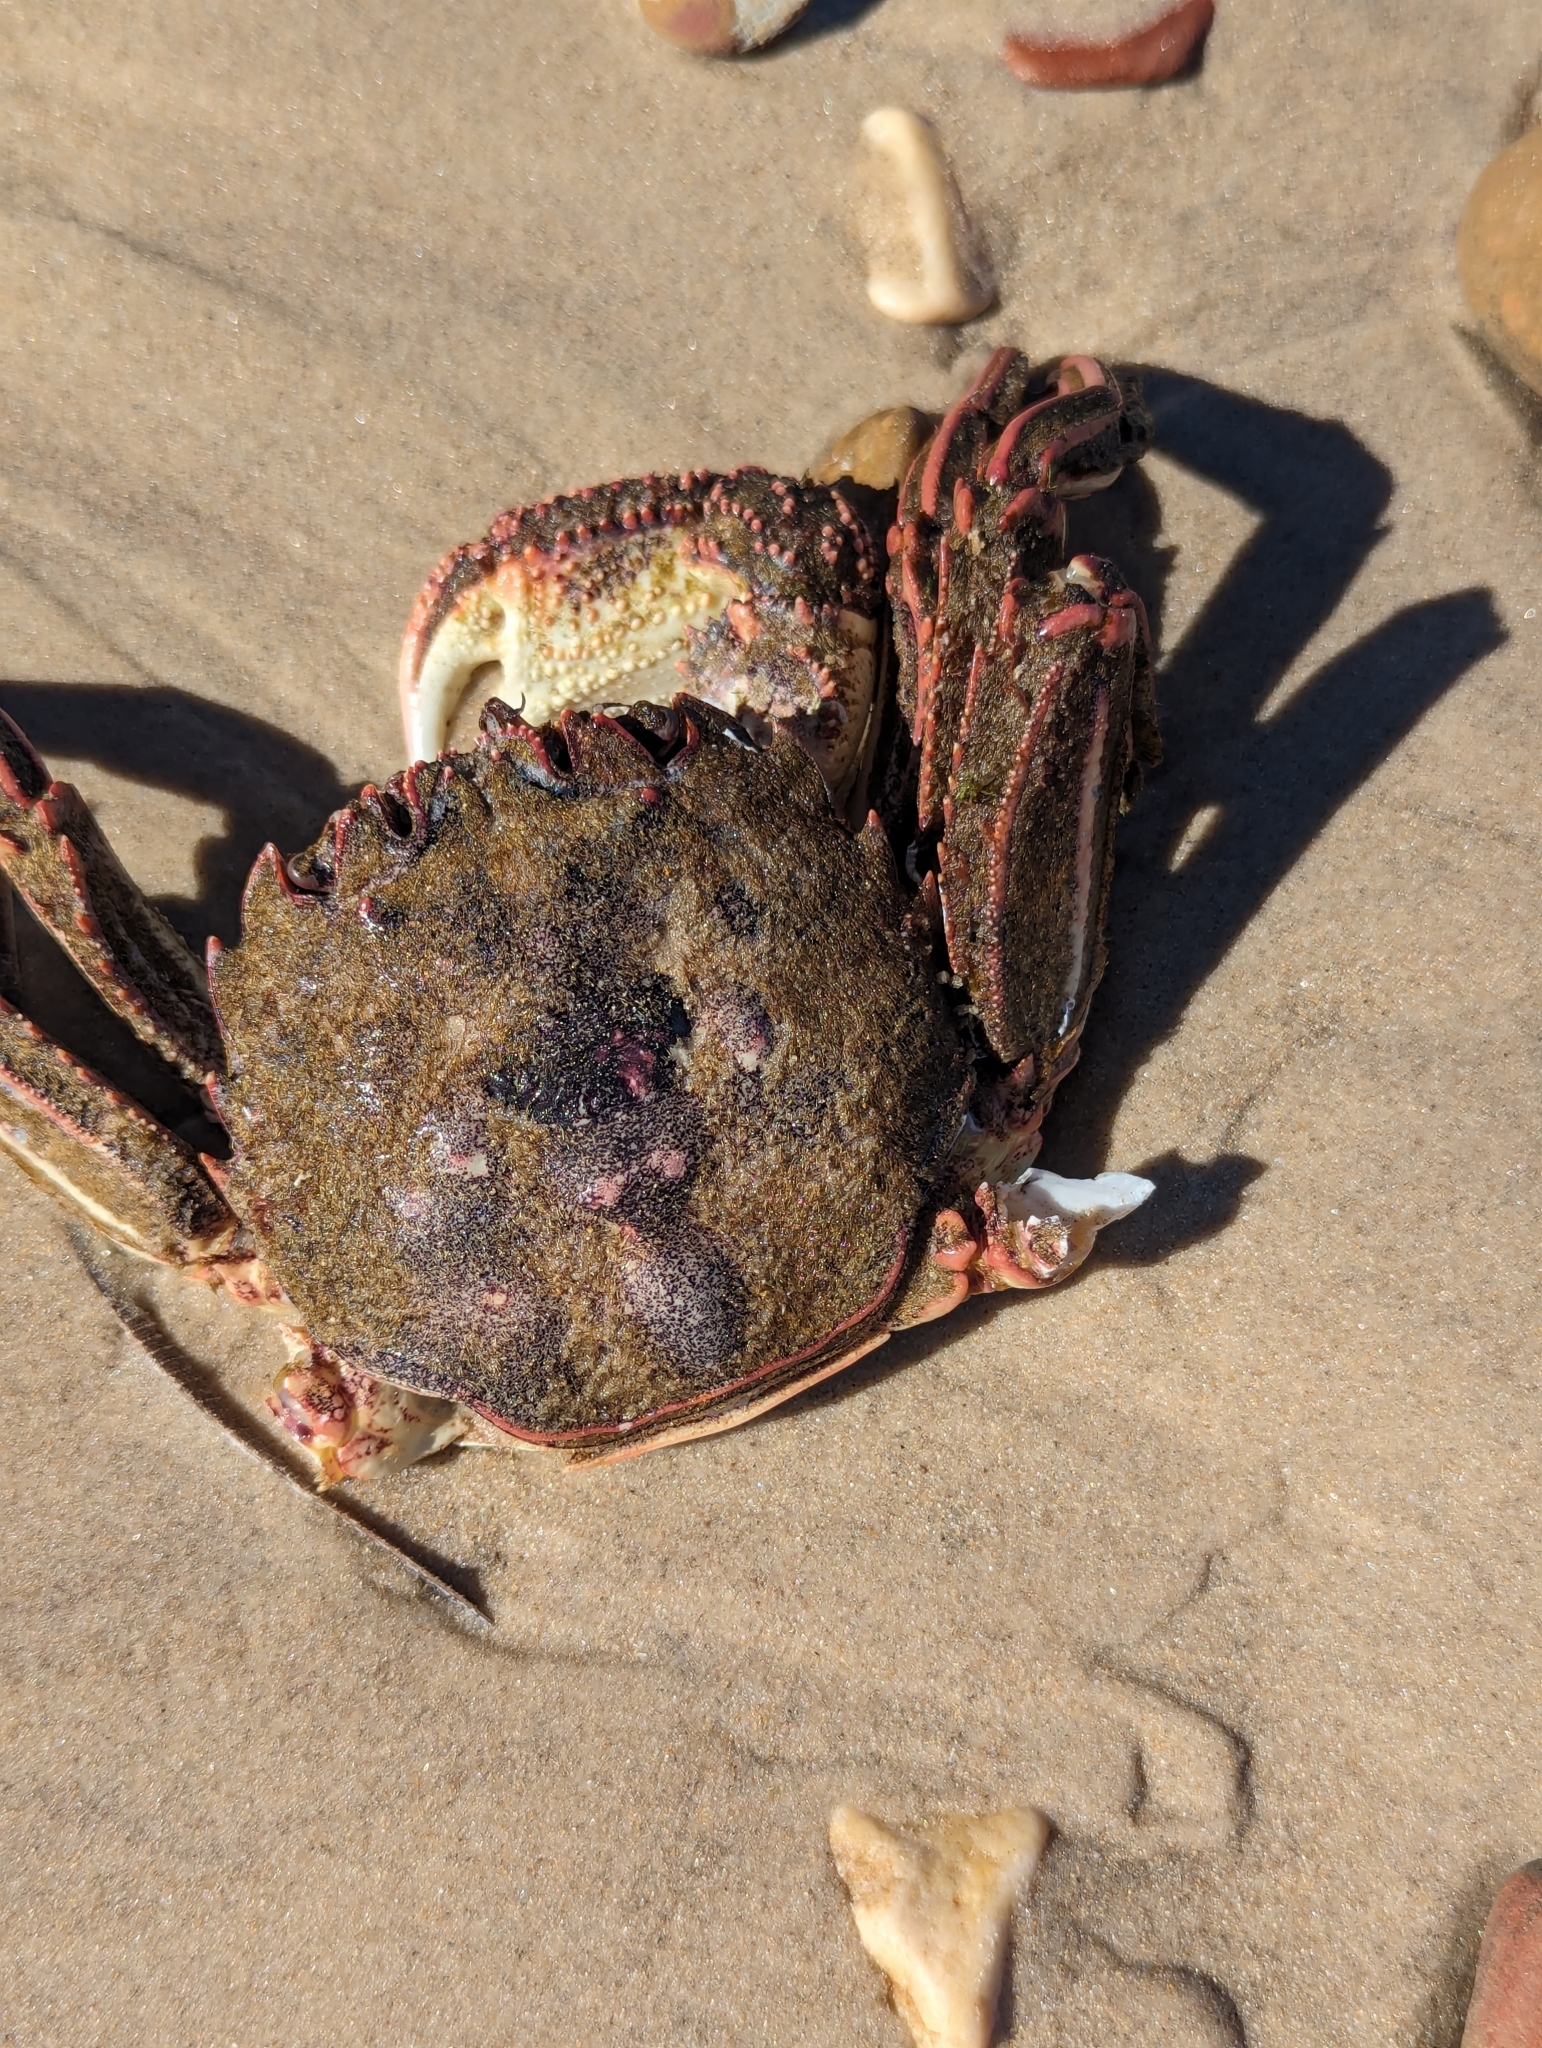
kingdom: Animalia
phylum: Arthropoda
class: Malacostraca
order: Decapoda
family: Plagusiidae
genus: Guinusia
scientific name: Guinusia chabrus
